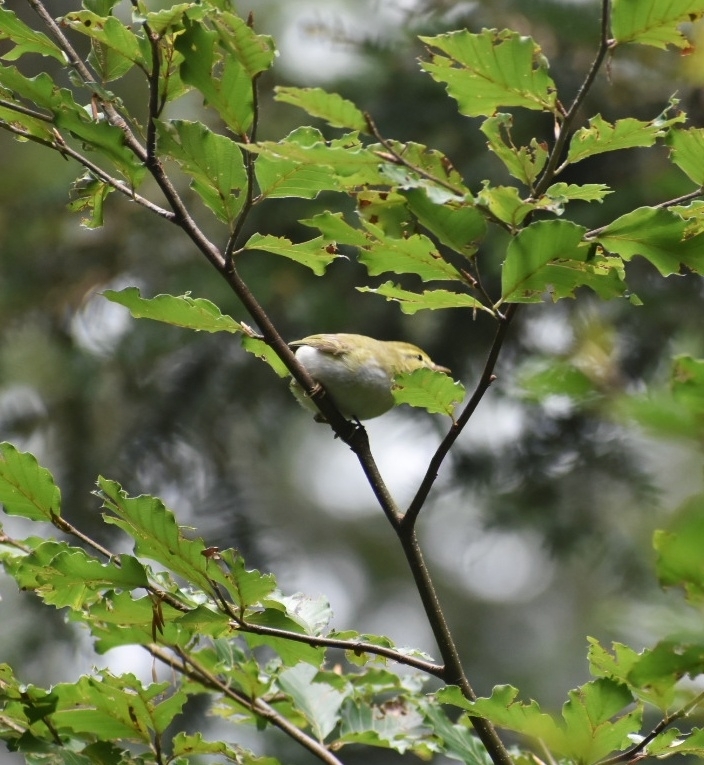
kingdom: Animalia
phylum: Chordata
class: Aves
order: Passeriformes
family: Phylloscopidae
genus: Phylloscopus
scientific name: Phylloscopus sibillatrix
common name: Wood warbler
